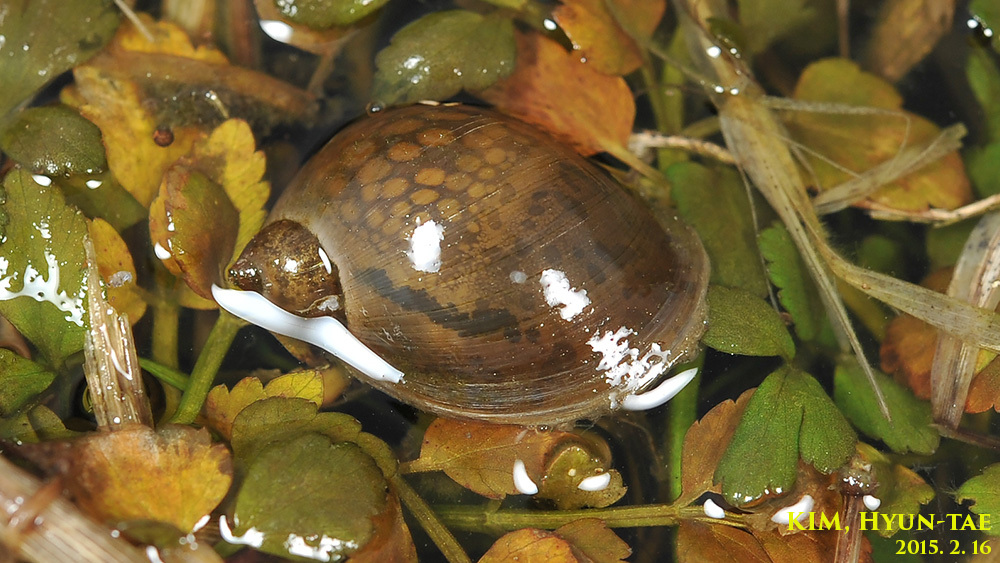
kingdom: Animalia
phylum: Mollusca
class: Gastropoda
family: Lymnaeidae
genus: Radix
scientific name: Radix auricularia
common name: Ear pond snail
